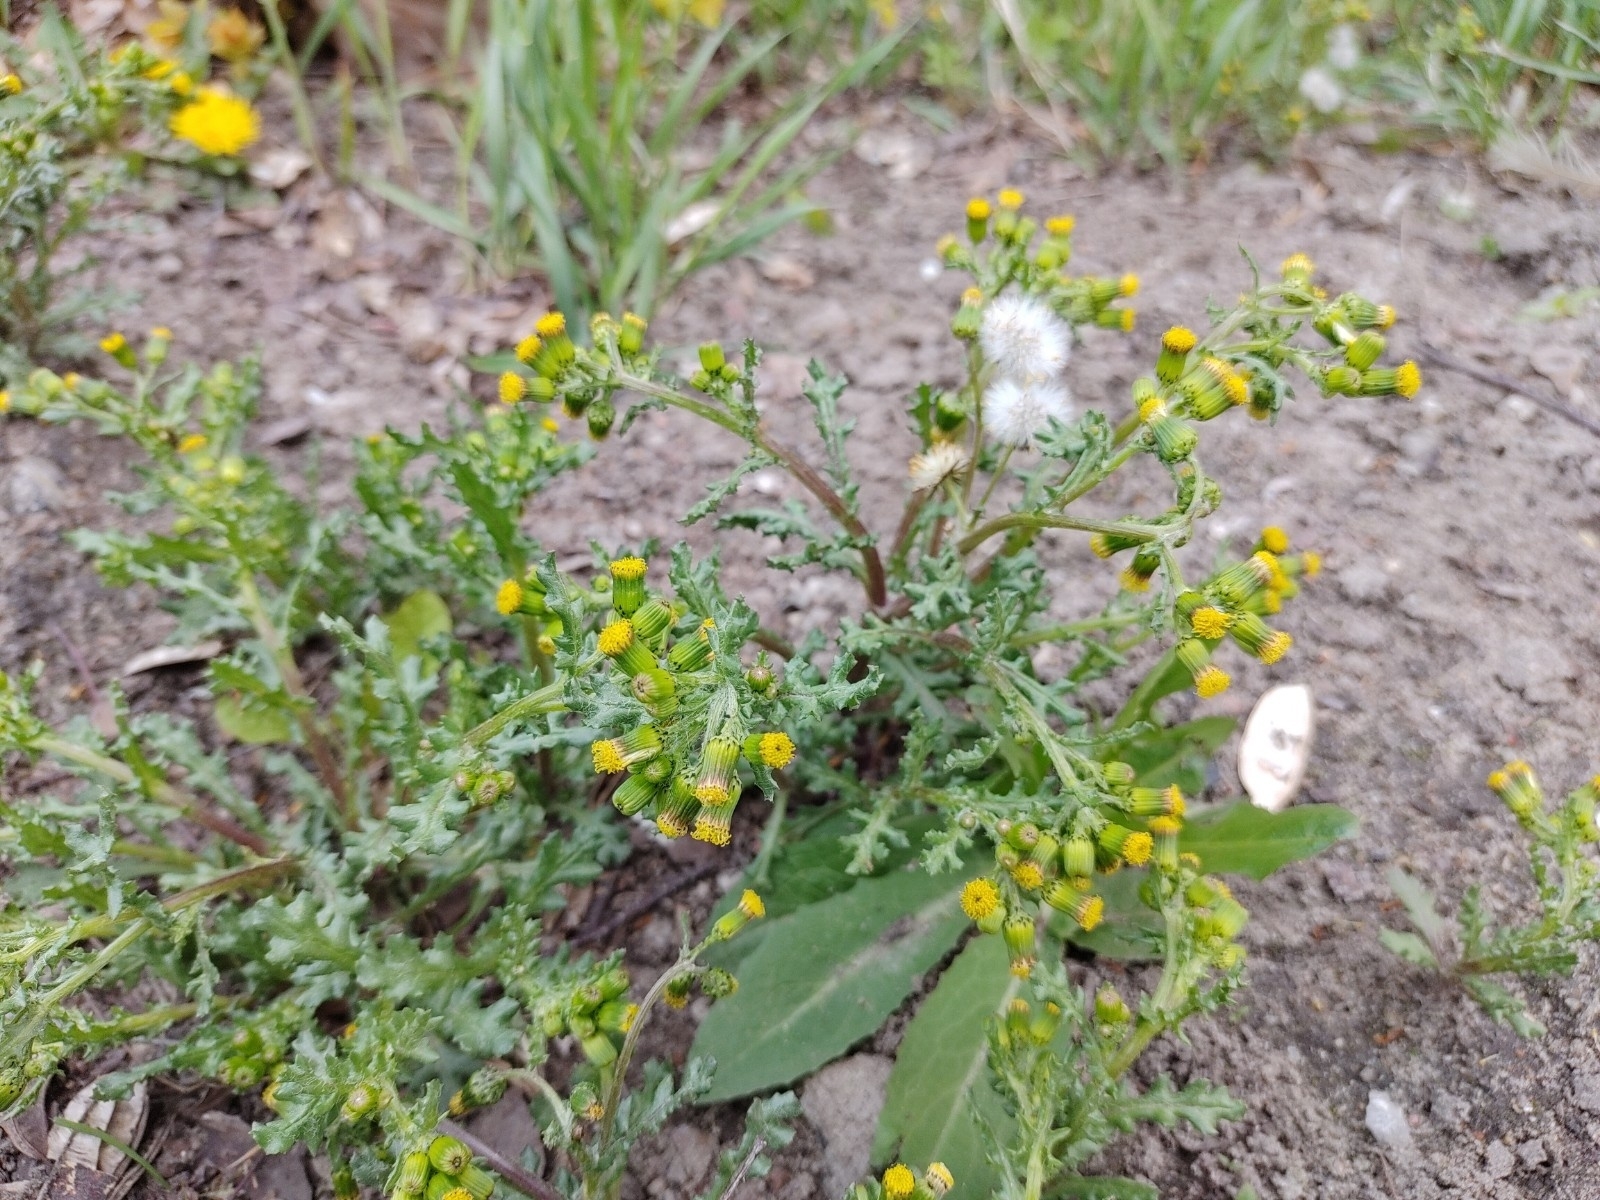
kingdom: Plantae
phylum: Tracheophyta
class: Magnoliopsida
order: Asterales
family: Asteraceae
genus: Senecio
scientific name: Senecio vulgaris
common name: Old-man-in-the-spring
